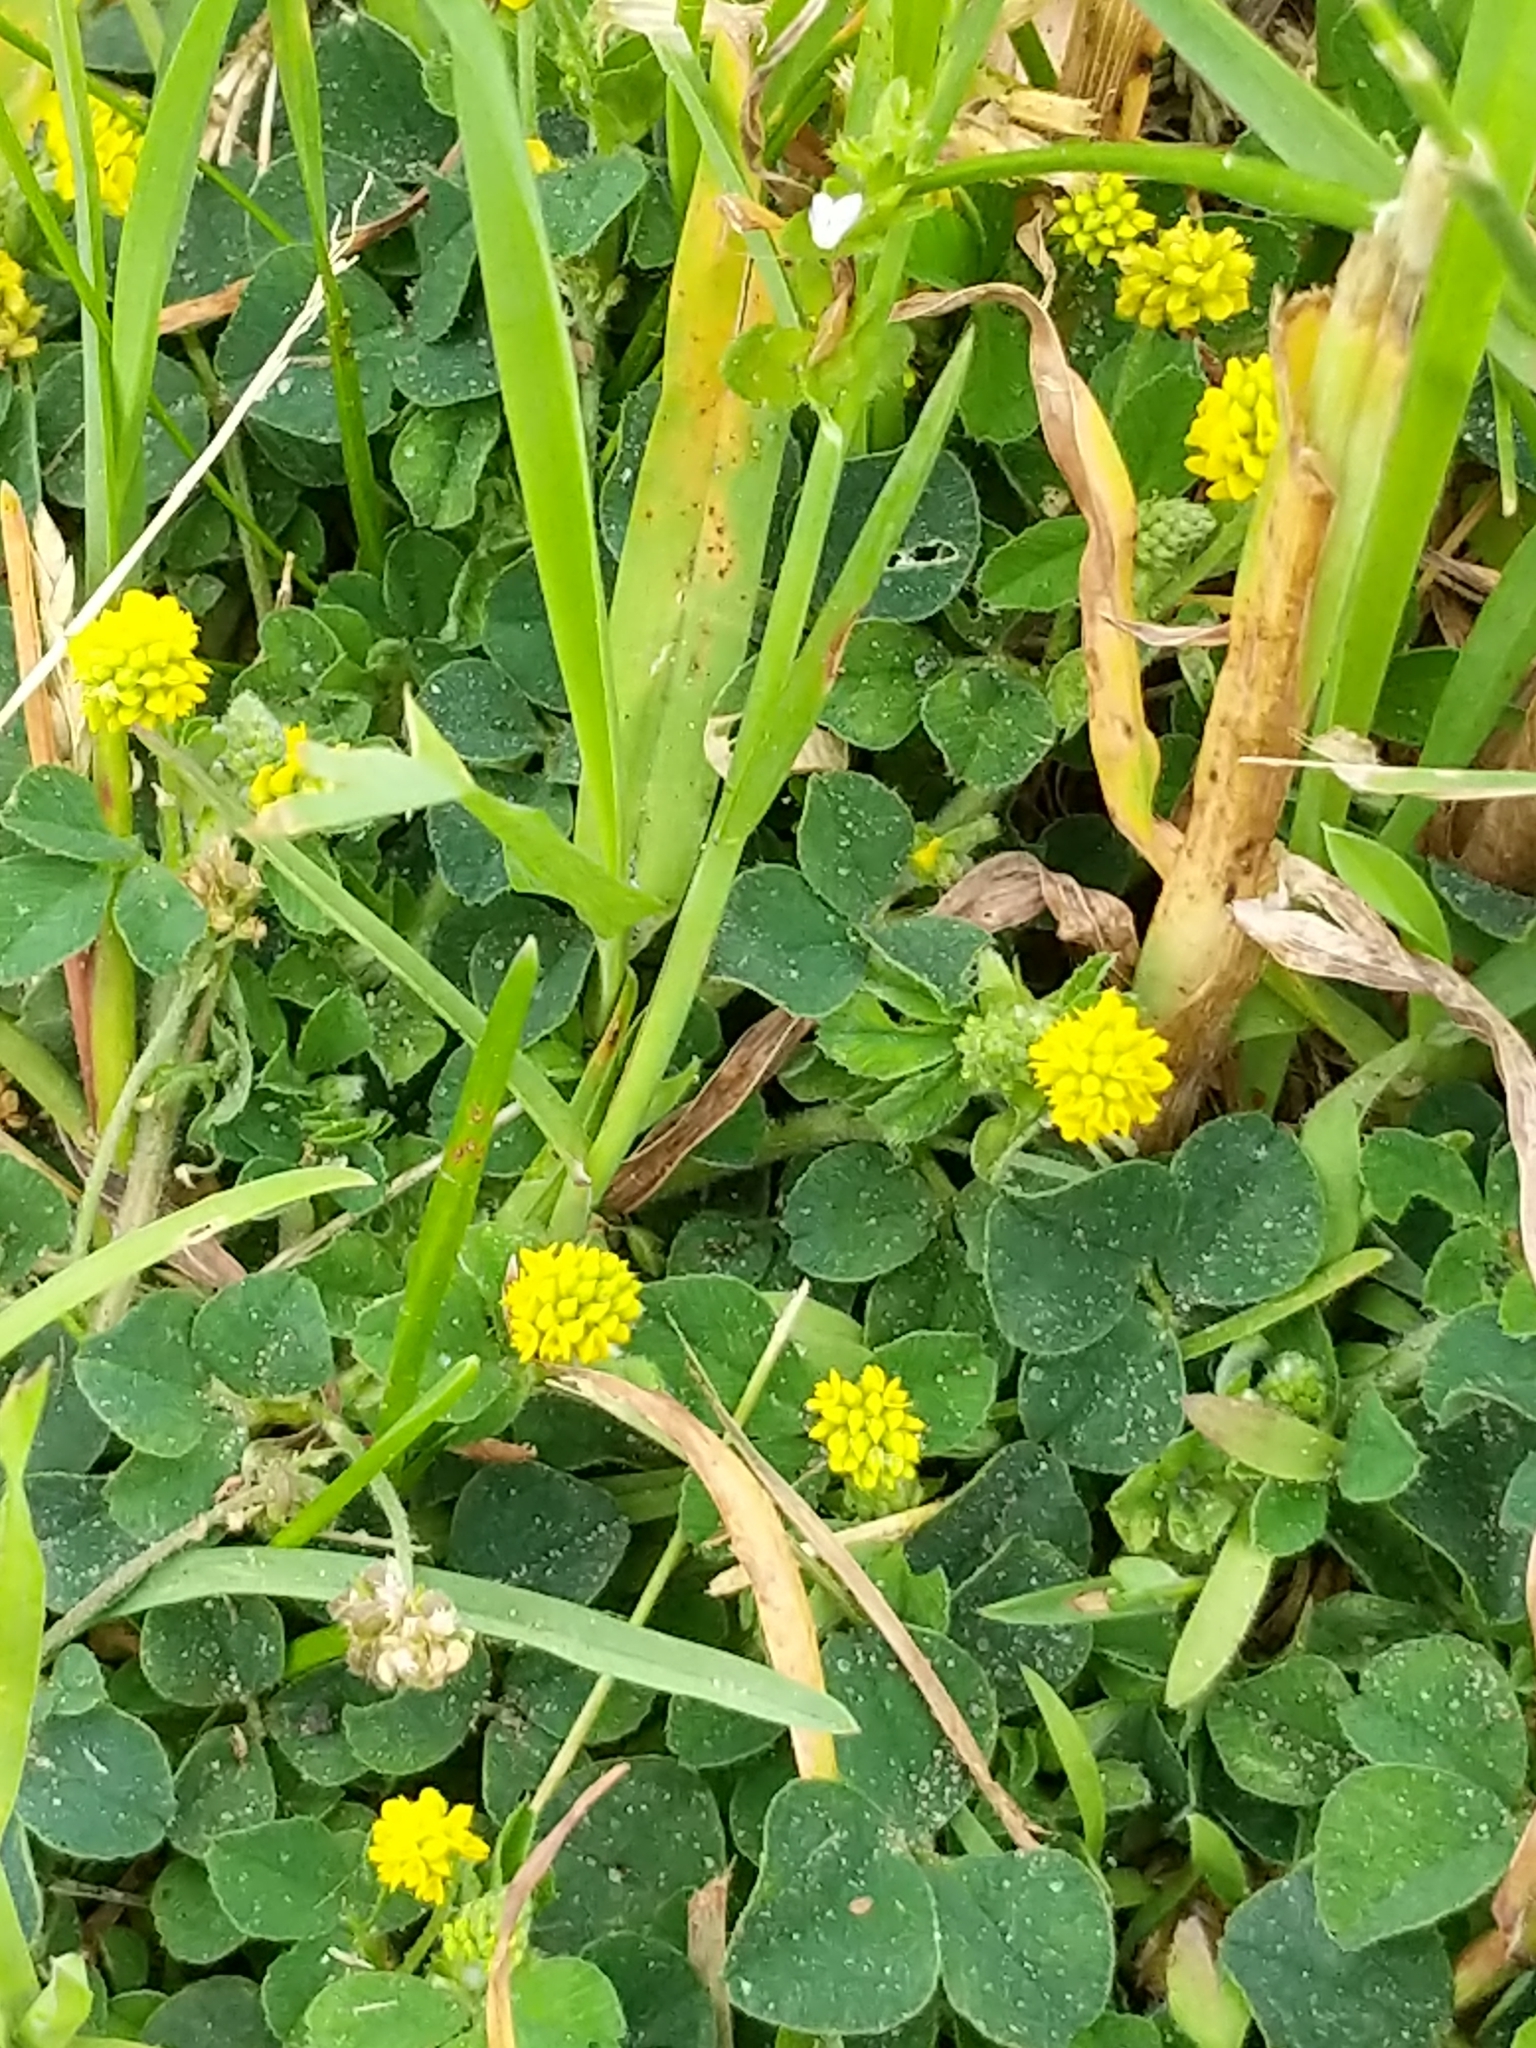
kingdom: Plantae
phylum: Tracheophyta
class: Magnoliopsida
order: Fabales
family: Fabaceae
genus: Medicago
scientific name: Medicago lupulina
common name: Black medick
